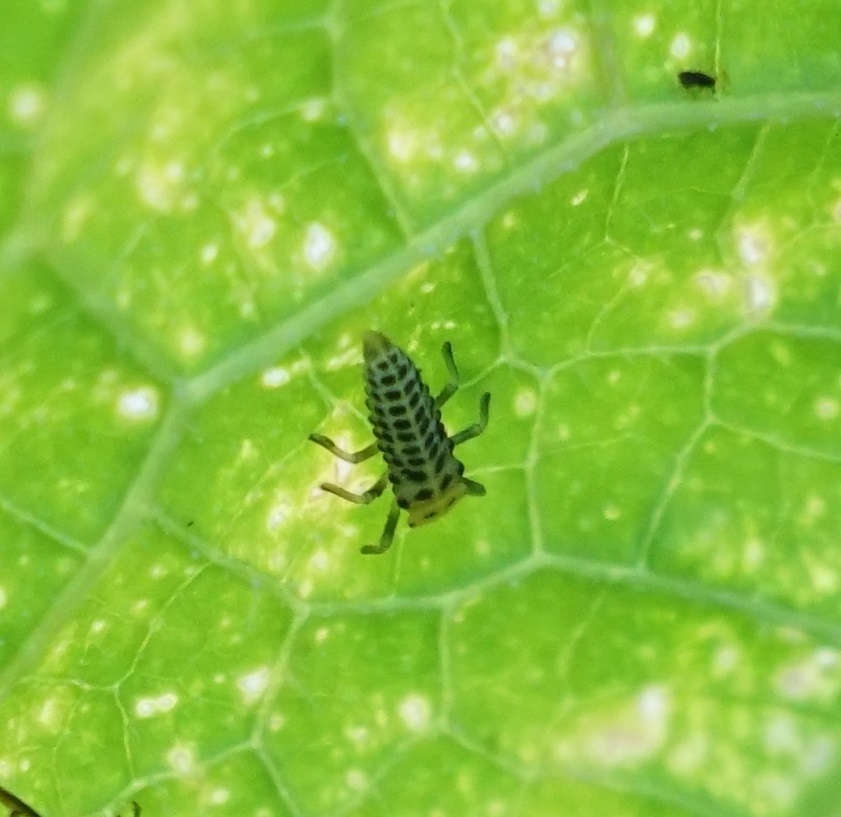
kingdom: Animalia
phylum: Arthropoda
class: Insecta
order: Coleoptera
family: Coccinellidae
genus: Illeis
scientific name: Illeis galbula
